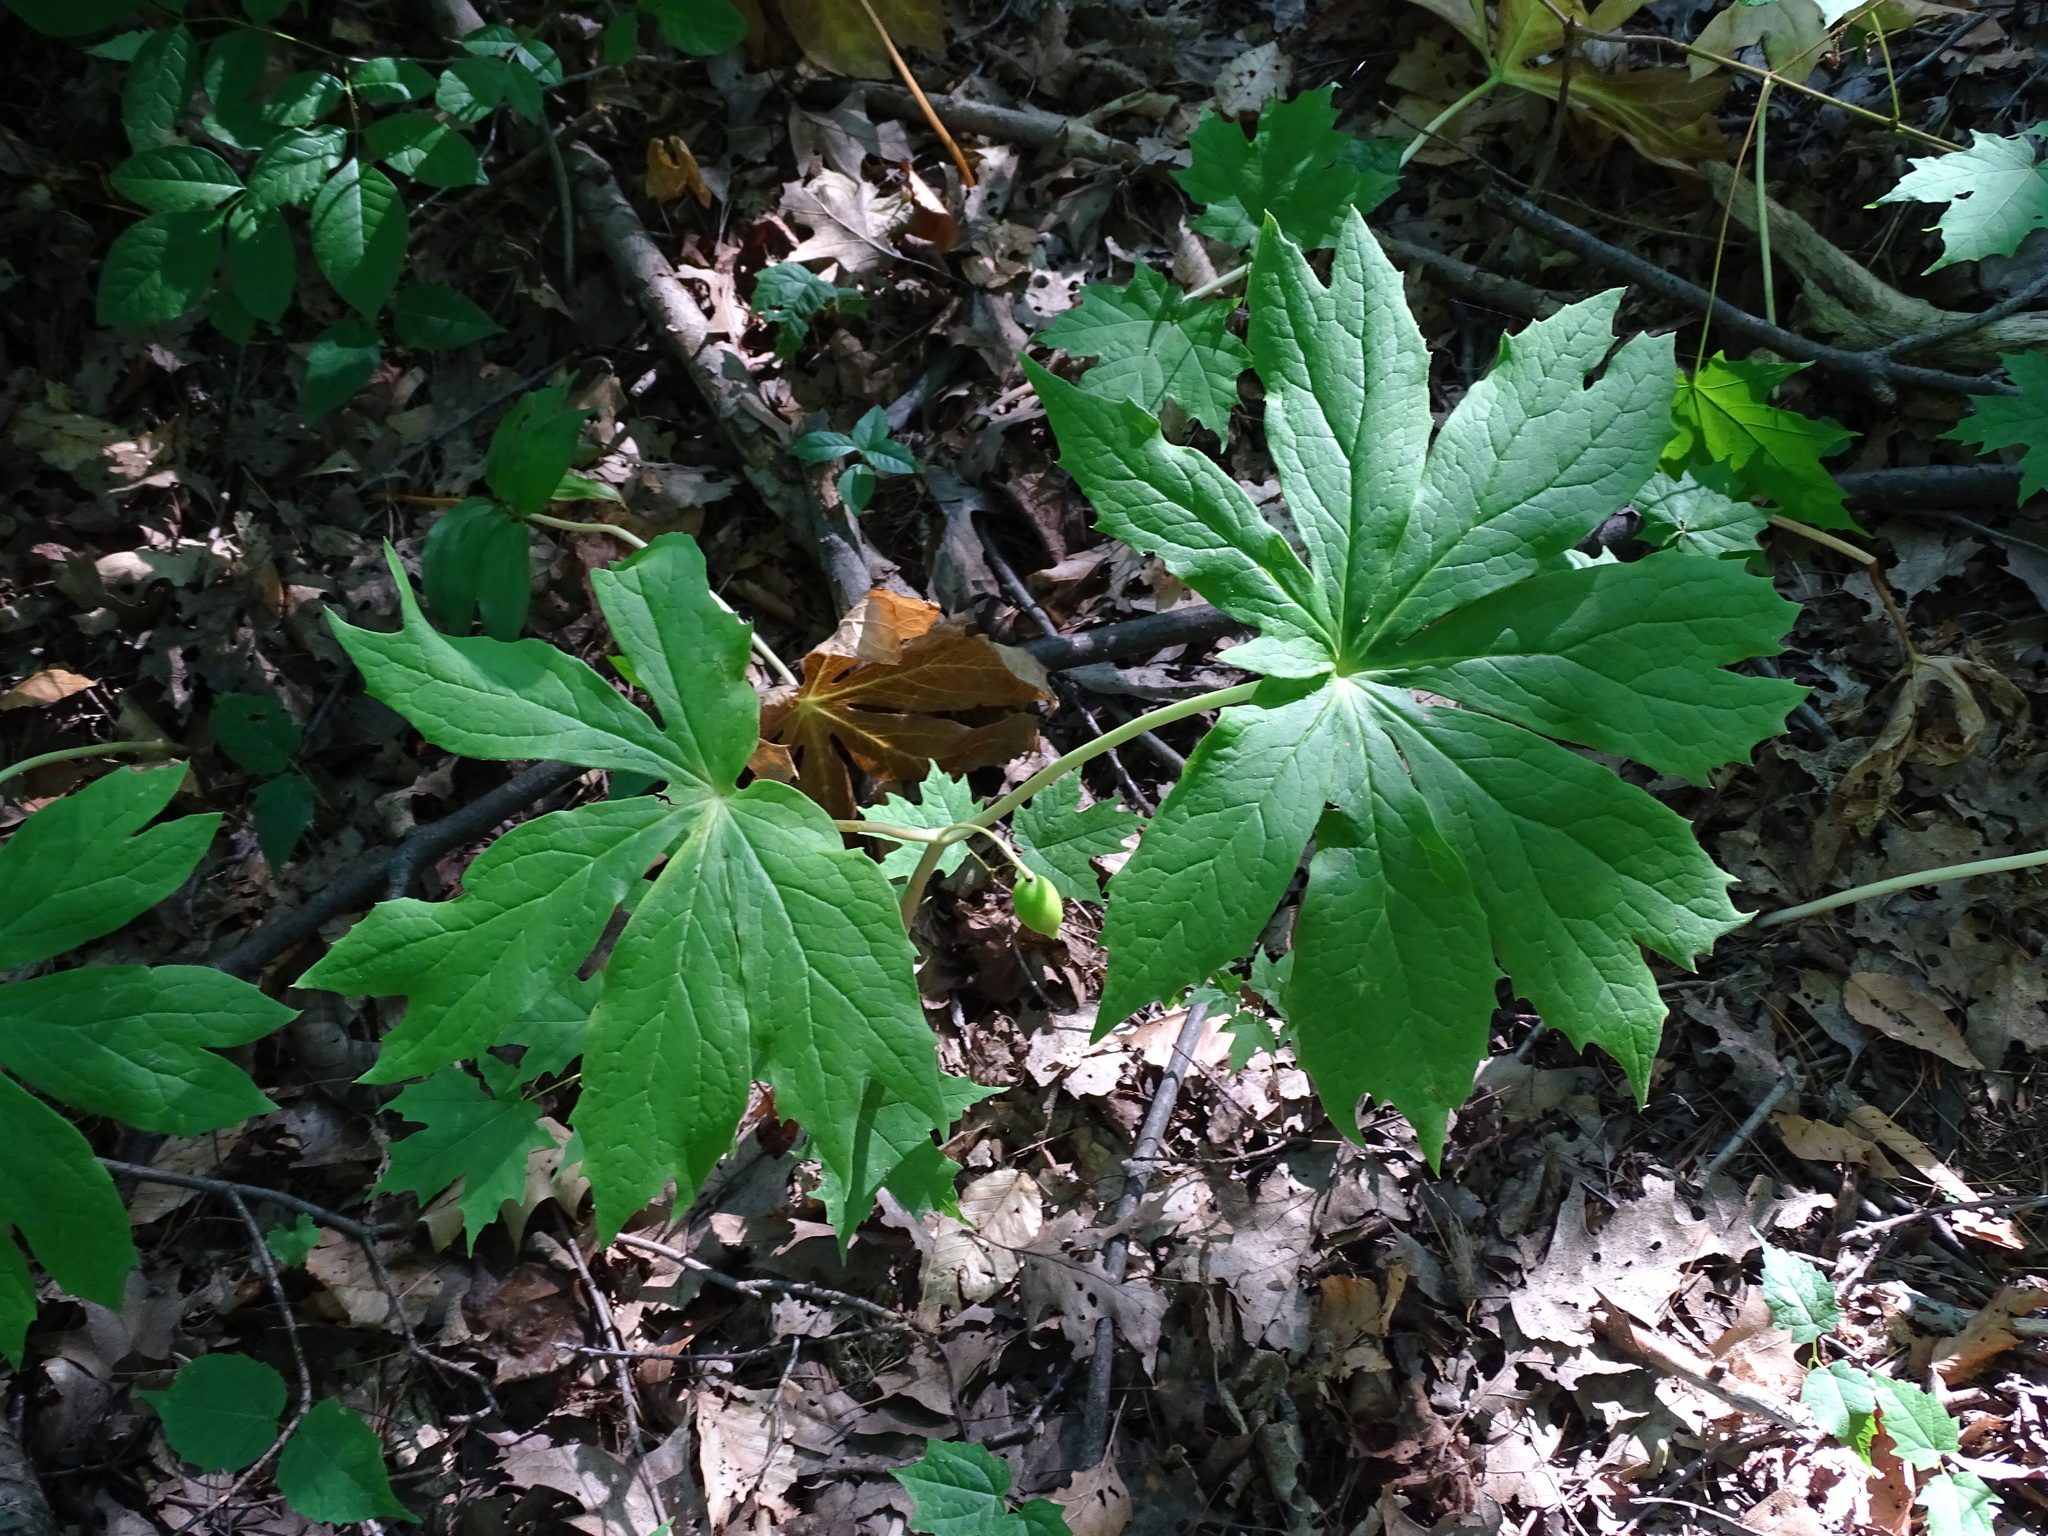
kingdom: Plantae
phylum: Tracheophyta
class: Magnoliopsida
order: Ranunculales
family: Berberidaceae
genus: Podophyllum
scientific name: Podophyllum peltatum
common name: Wild mandrake
